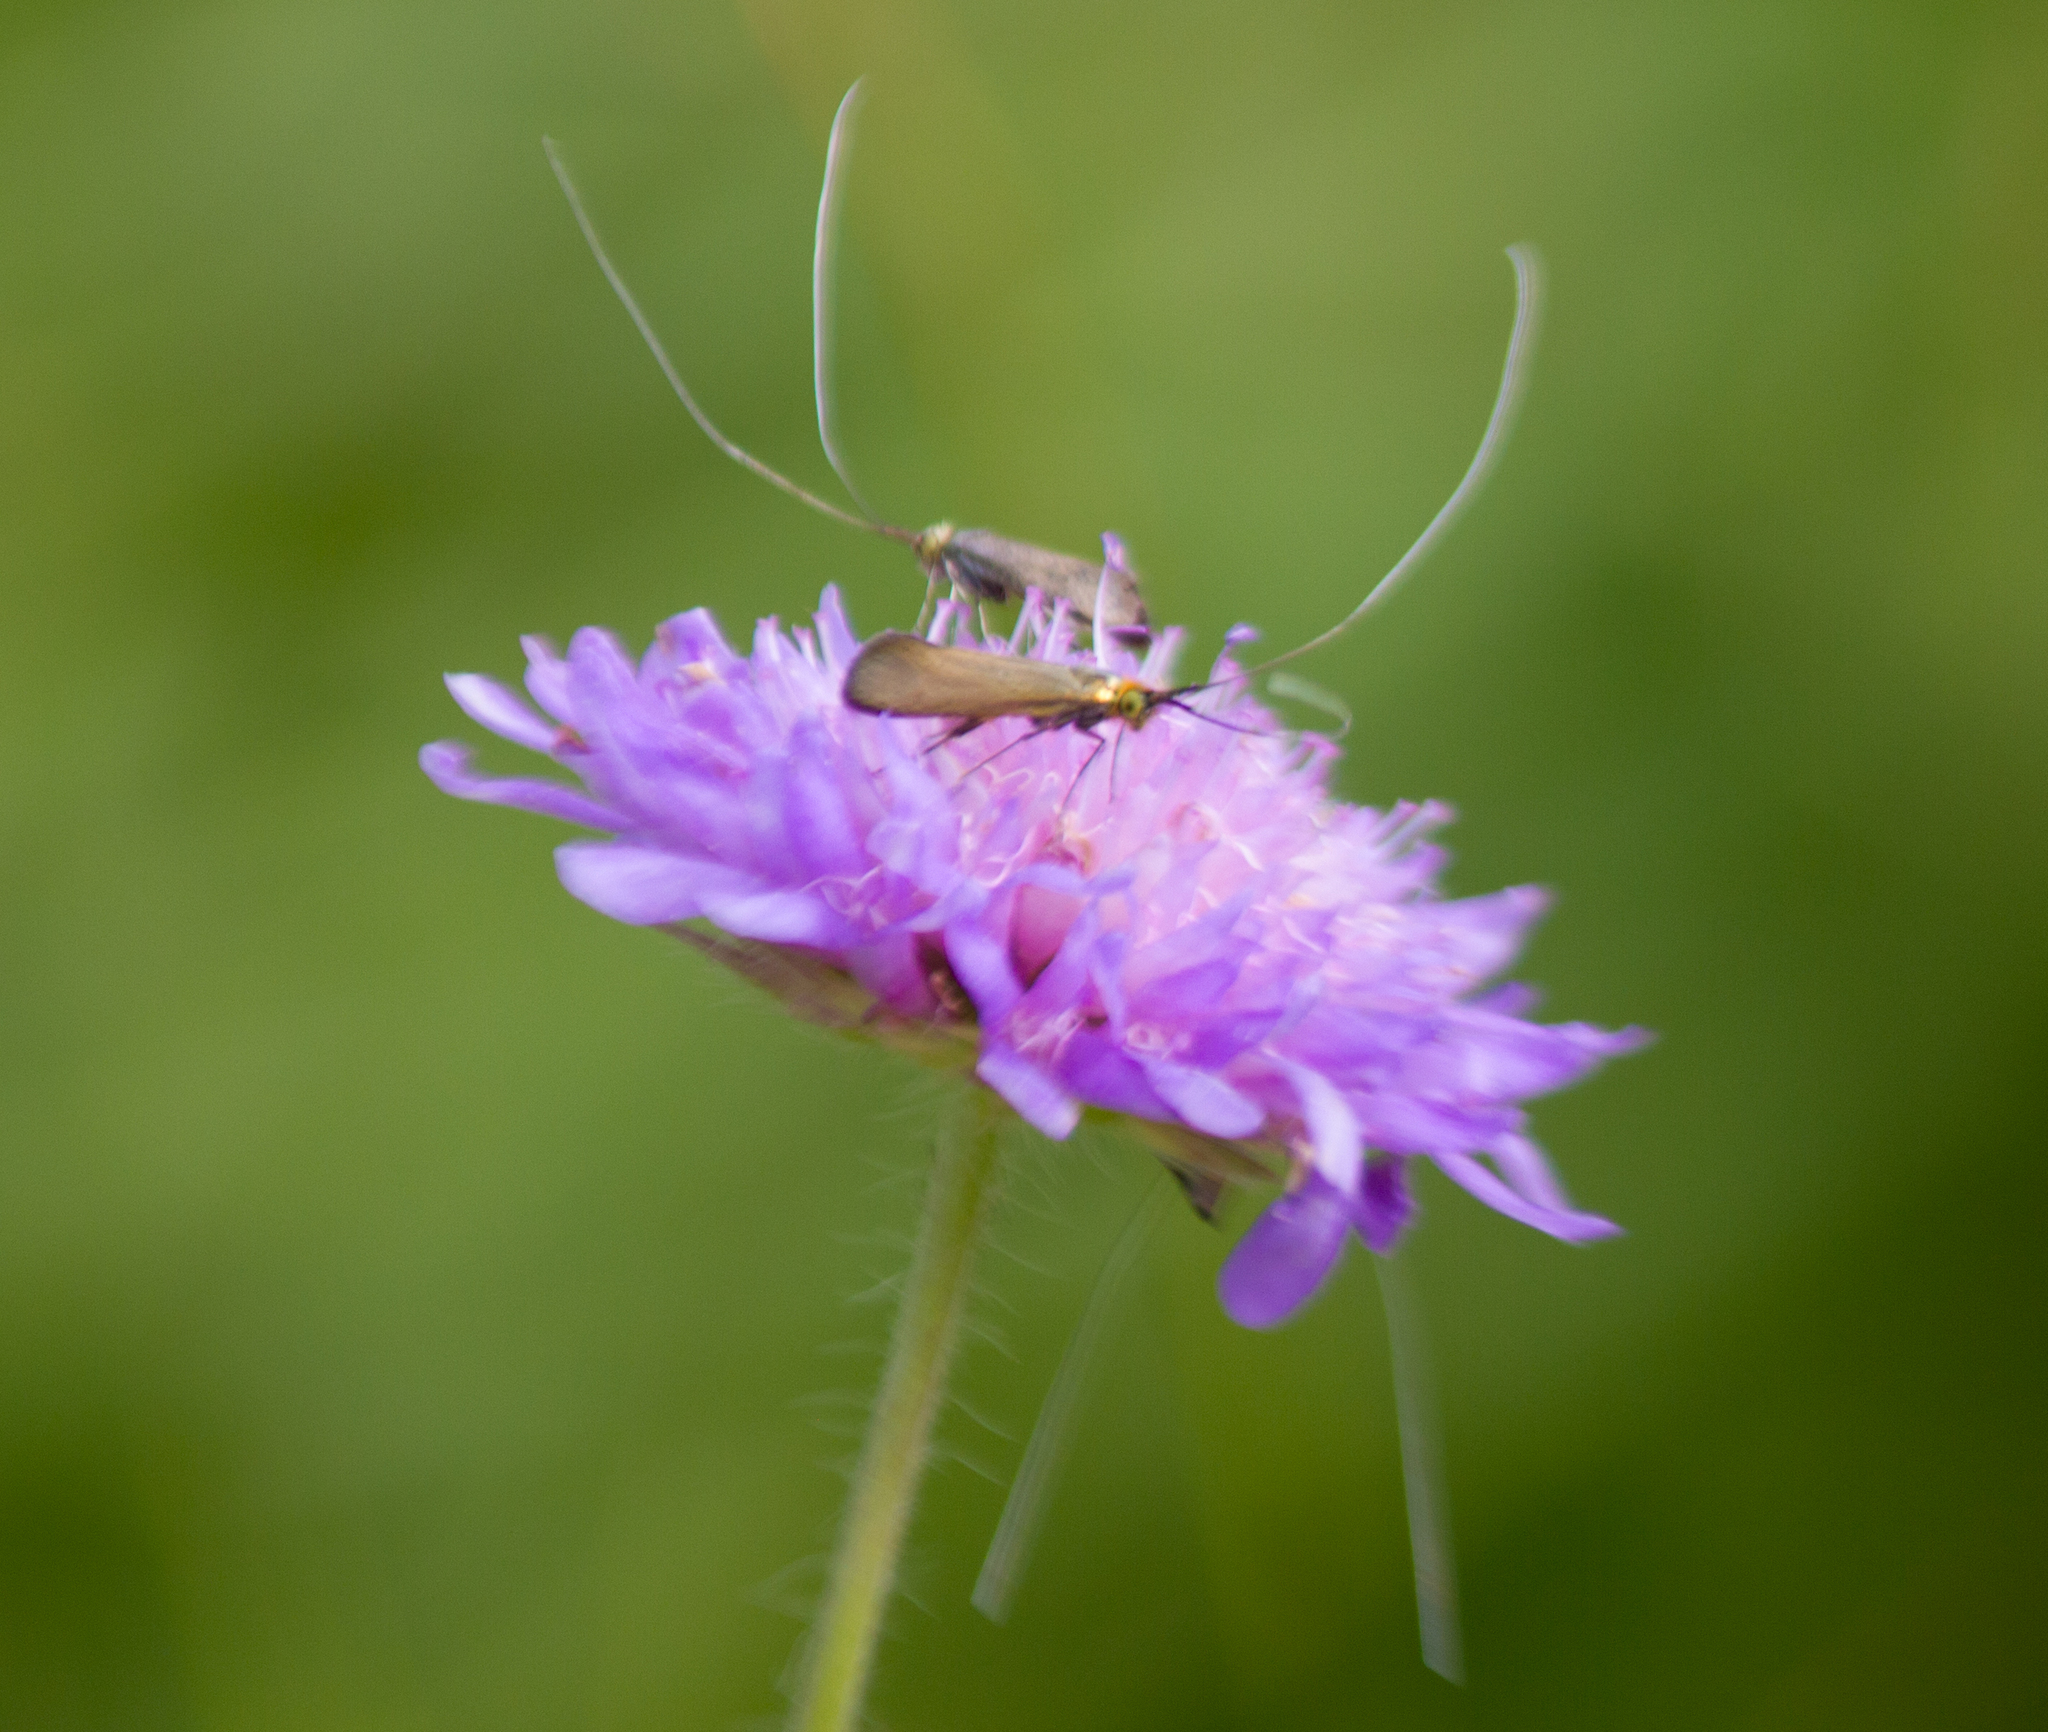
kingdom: Animalia
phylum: Arthropoda
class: Insecta
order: Lepidoptera
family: Adelidae
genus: Nemophora
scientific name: Nemophora metallica
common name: Brassy long-horn
